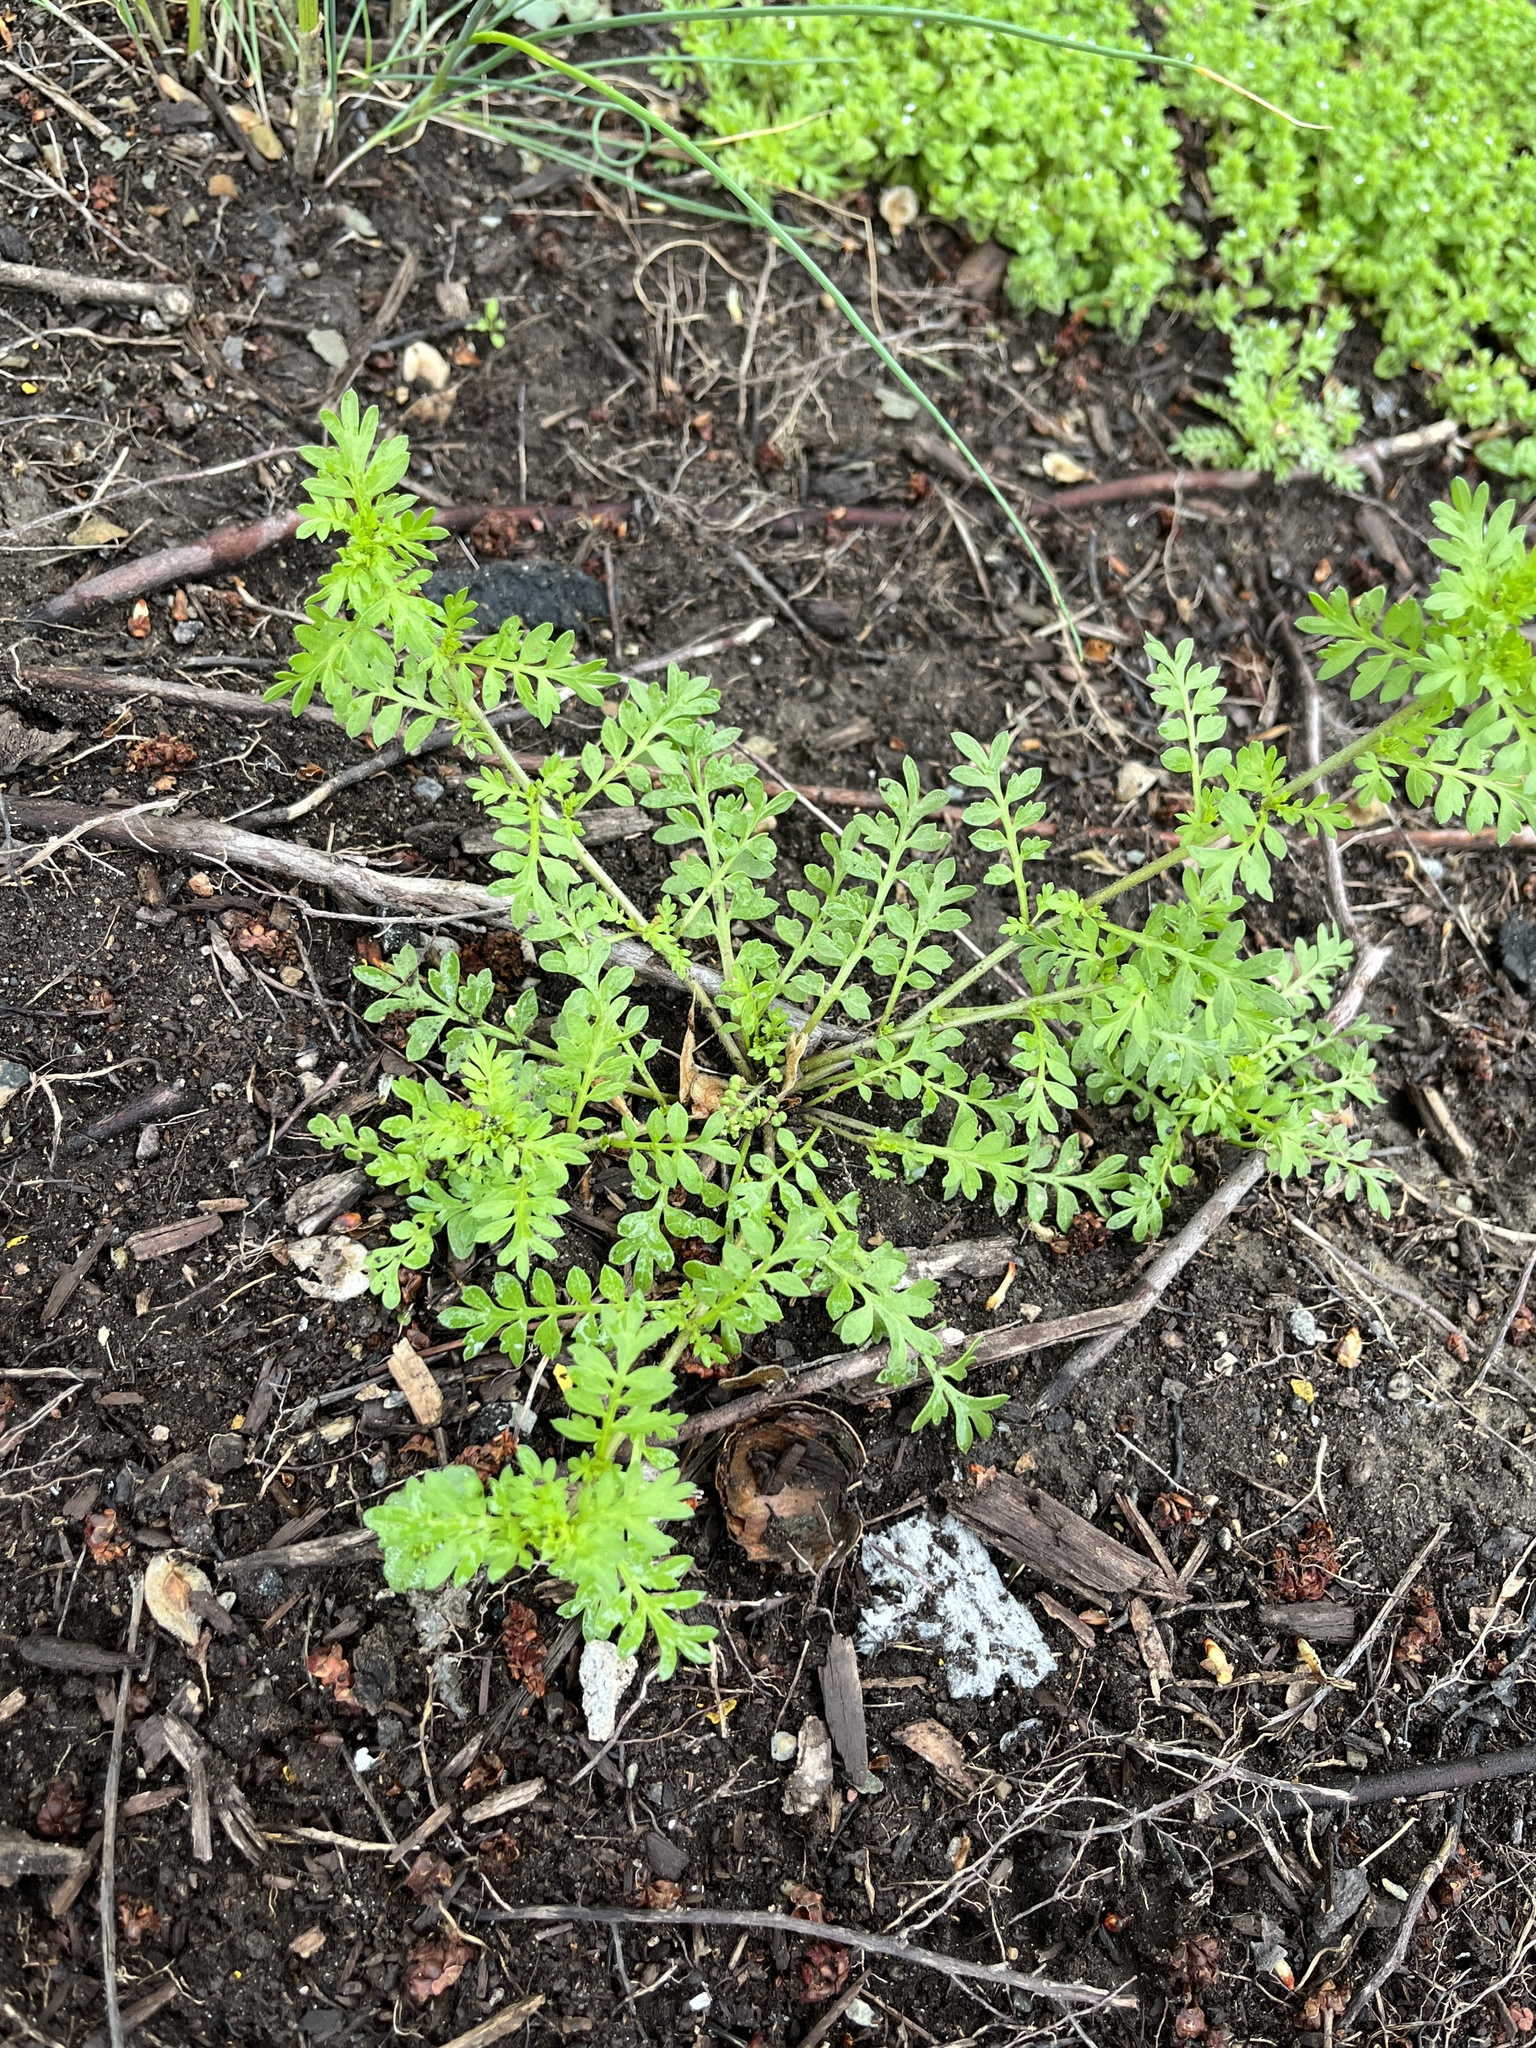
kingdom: Plantae
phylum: Tracheophyta
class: Magnoliopsida
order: Brassicales
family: Brassicaceae
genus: Lepidium
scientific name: Lepidium didymum
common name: Lesser swinecress
